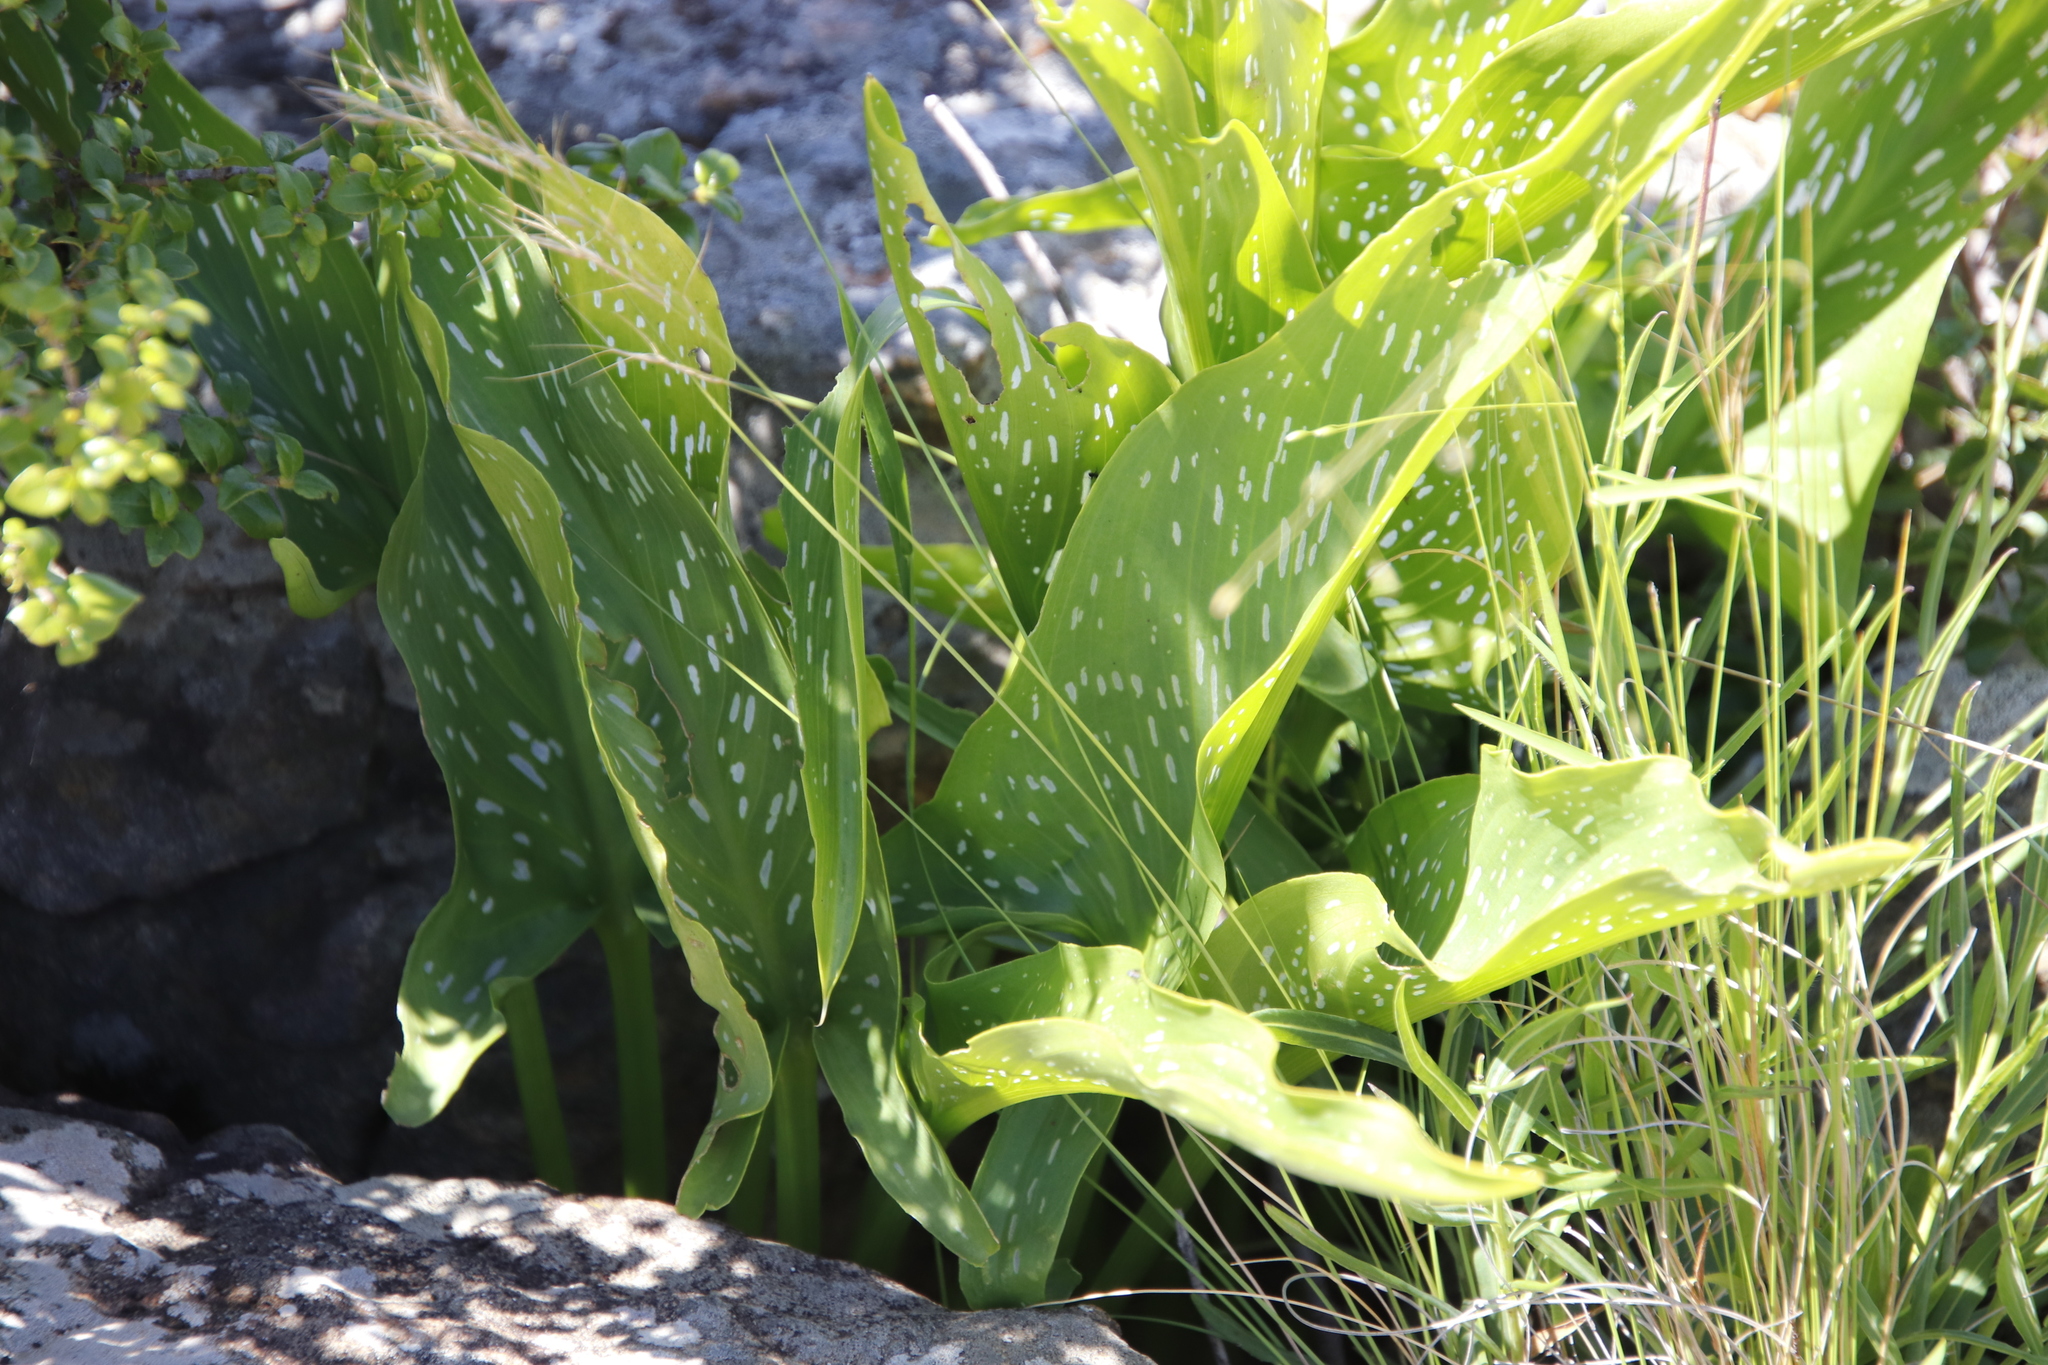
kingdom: Plantae
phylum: Tracheophyta
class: Liliopsida
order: Alismatales
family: Araceae
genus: Zantedeschia
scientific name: Zantedeschia albomaculata
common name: Spotted calla lily
